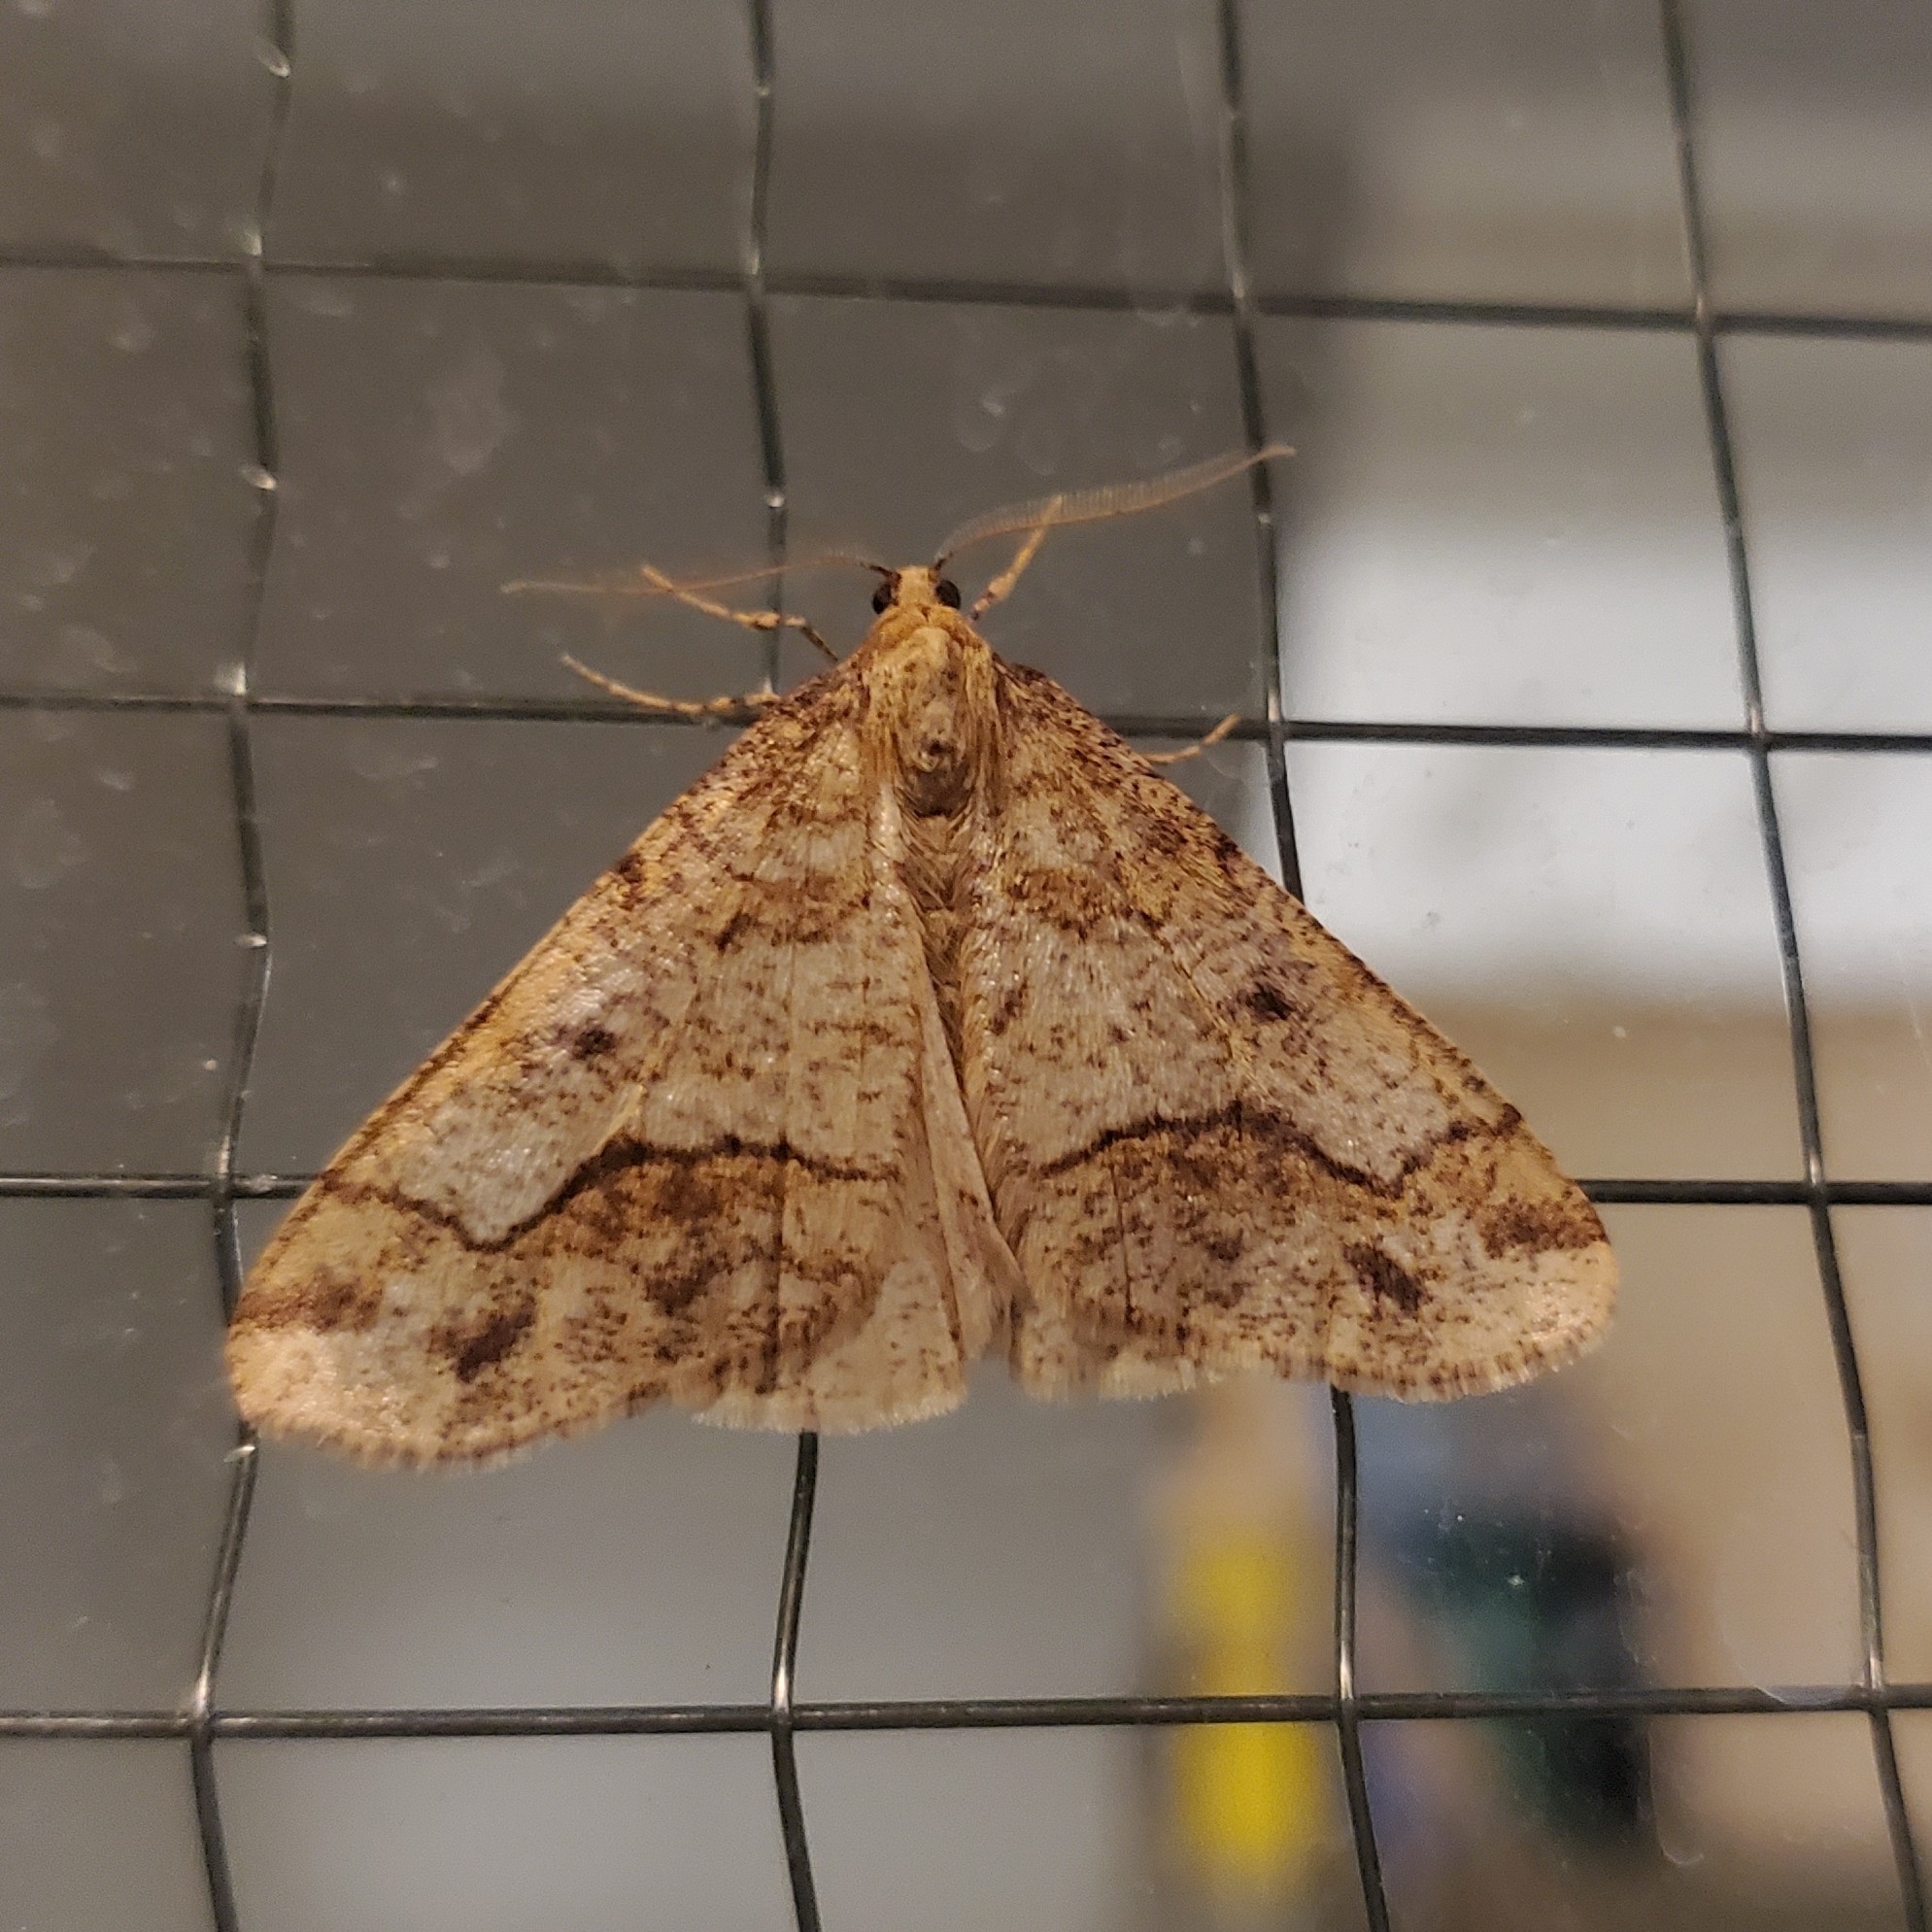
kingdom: Animalia
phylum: Arthropoda
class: Insecta
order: Lepidoptera
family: Geometridae
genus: Erannis
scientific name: Erannis tiliaria
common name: Linden looper
